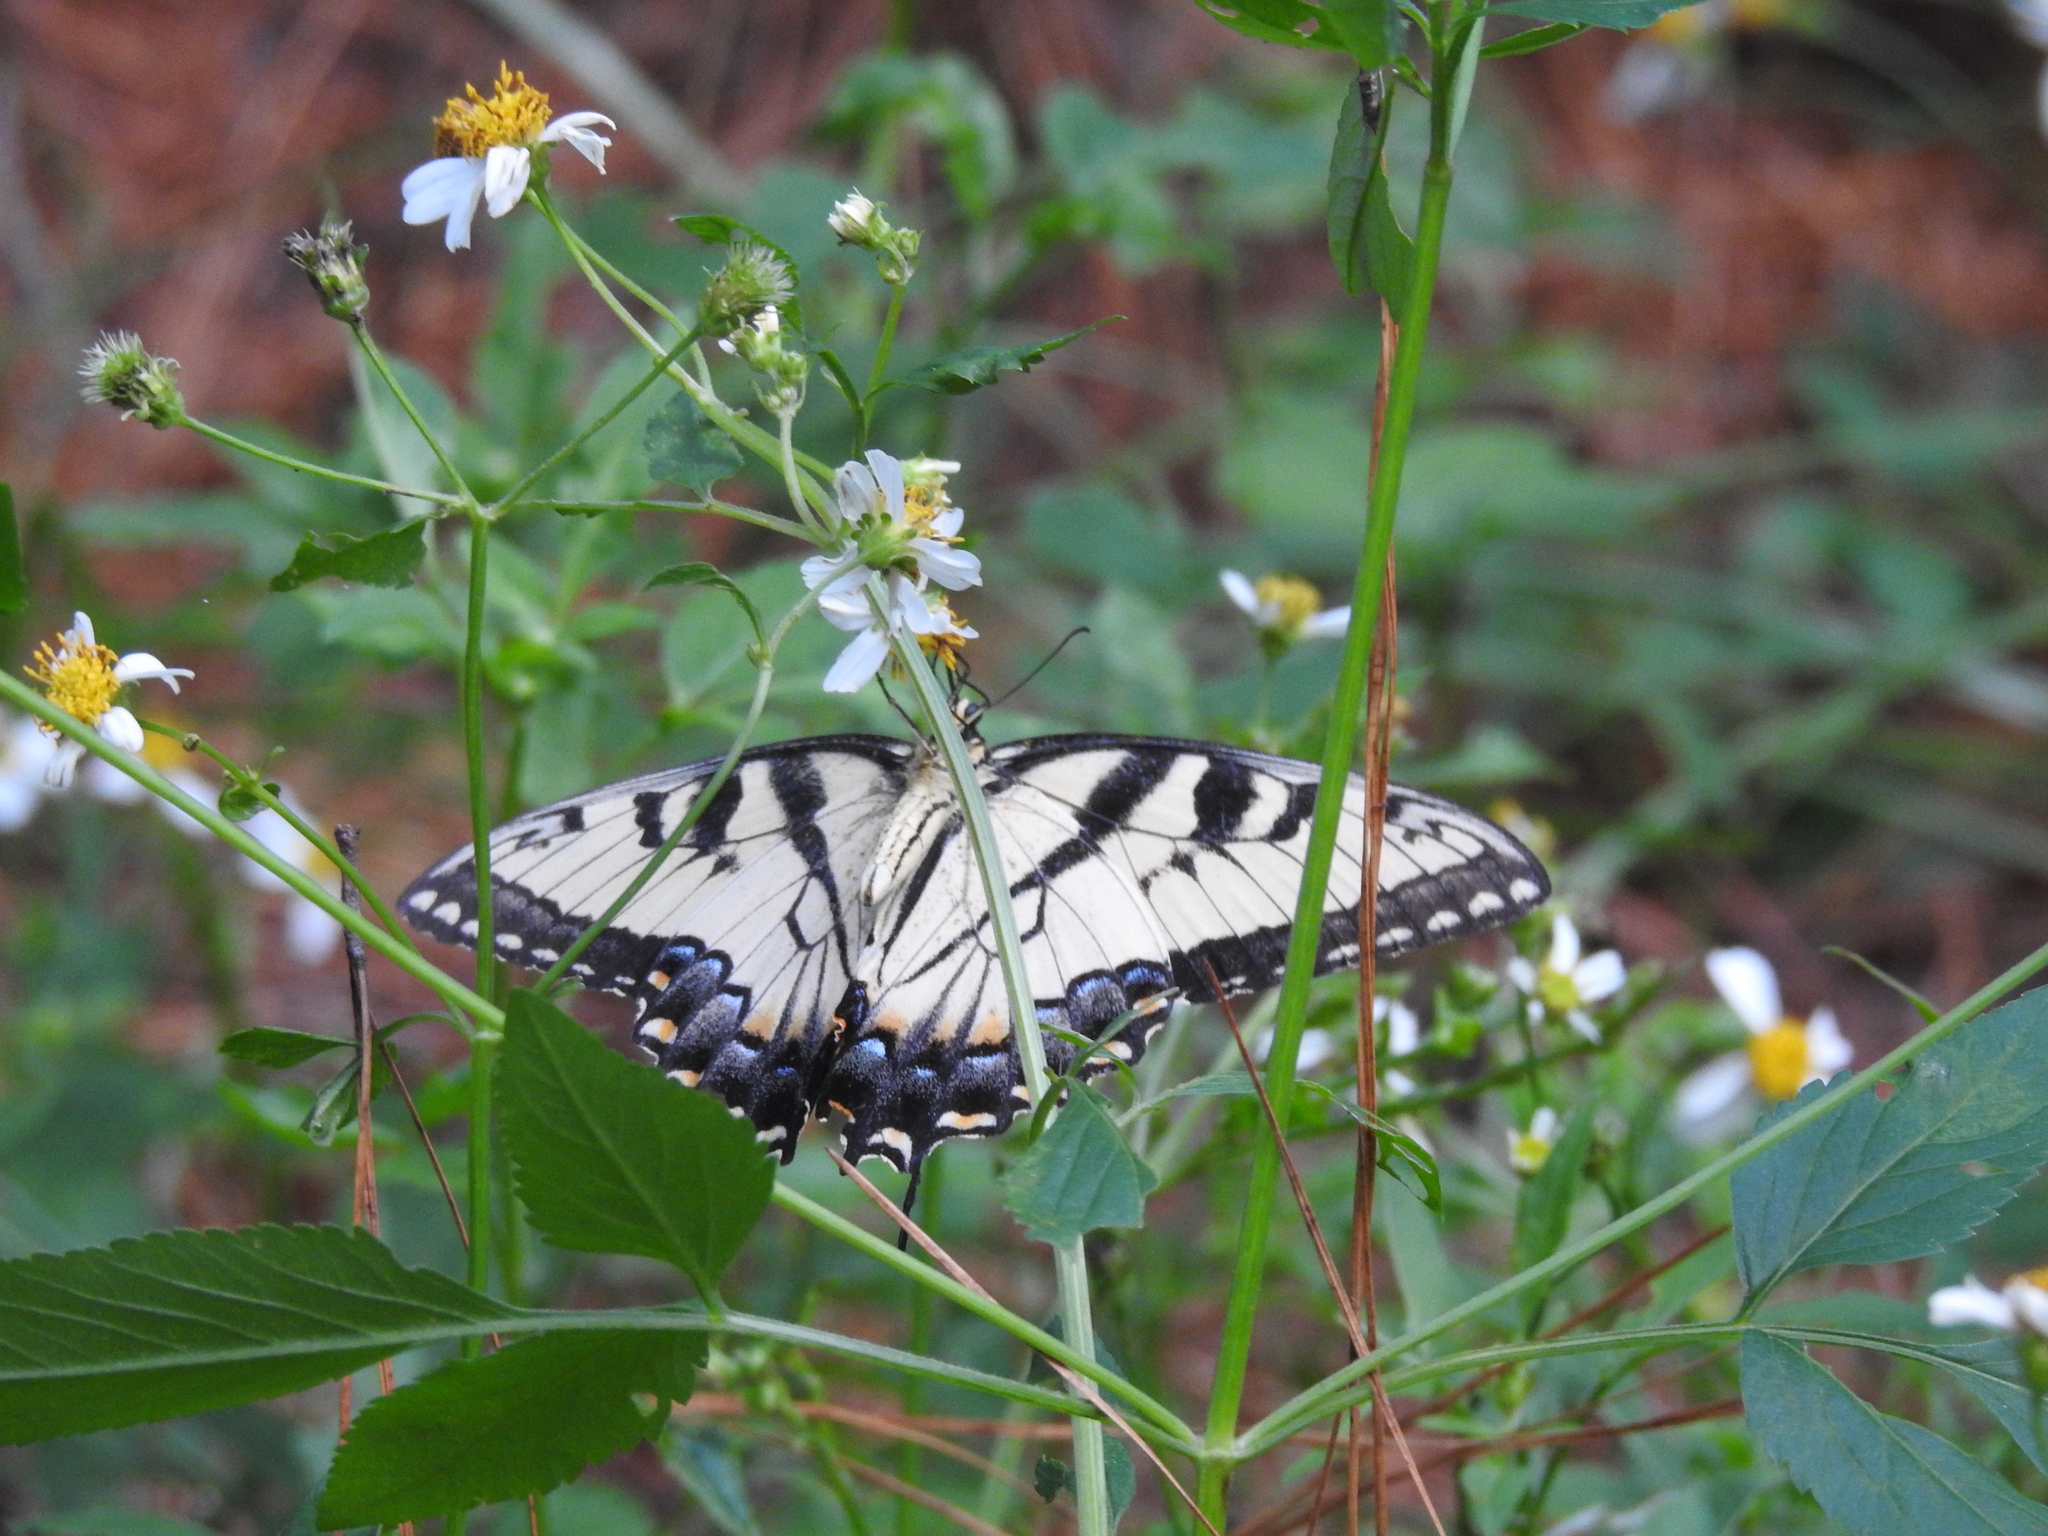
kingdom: Animalia
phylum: Arthropoda
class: Insecta
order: Lepidoptera
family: Papilionidae
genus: Papilio
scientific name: Papilio glaucus
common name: Tiger swallowtail
